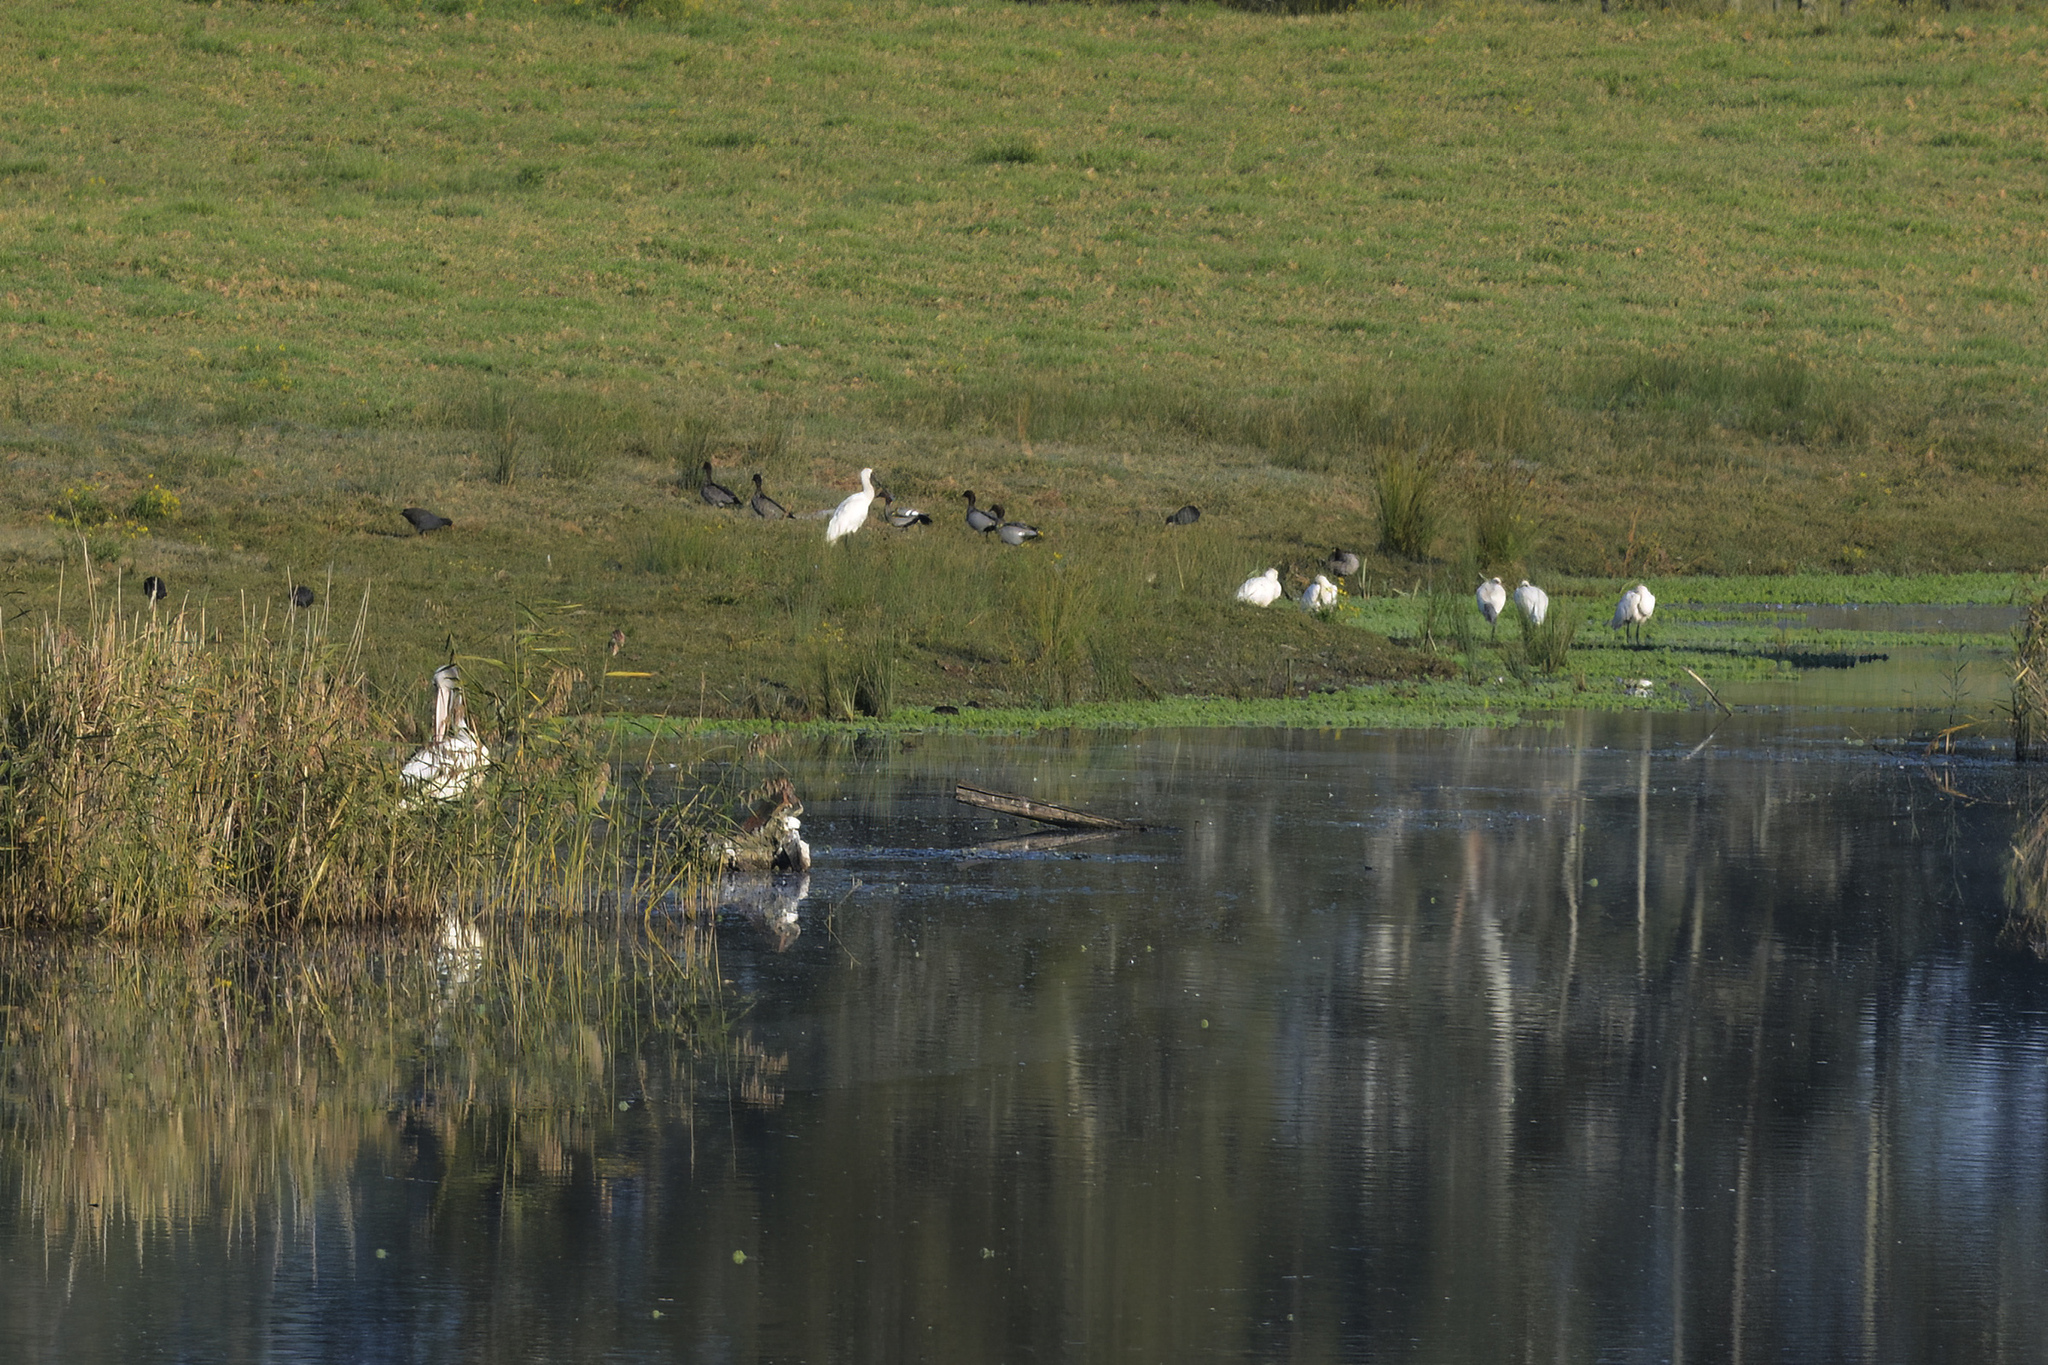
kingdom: Animalia
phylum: Chordata
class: Aves
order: Pelecaniformes
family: Threskiornithidae
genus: Platalea
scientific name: Platalea regia
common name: Royal spoonbill
